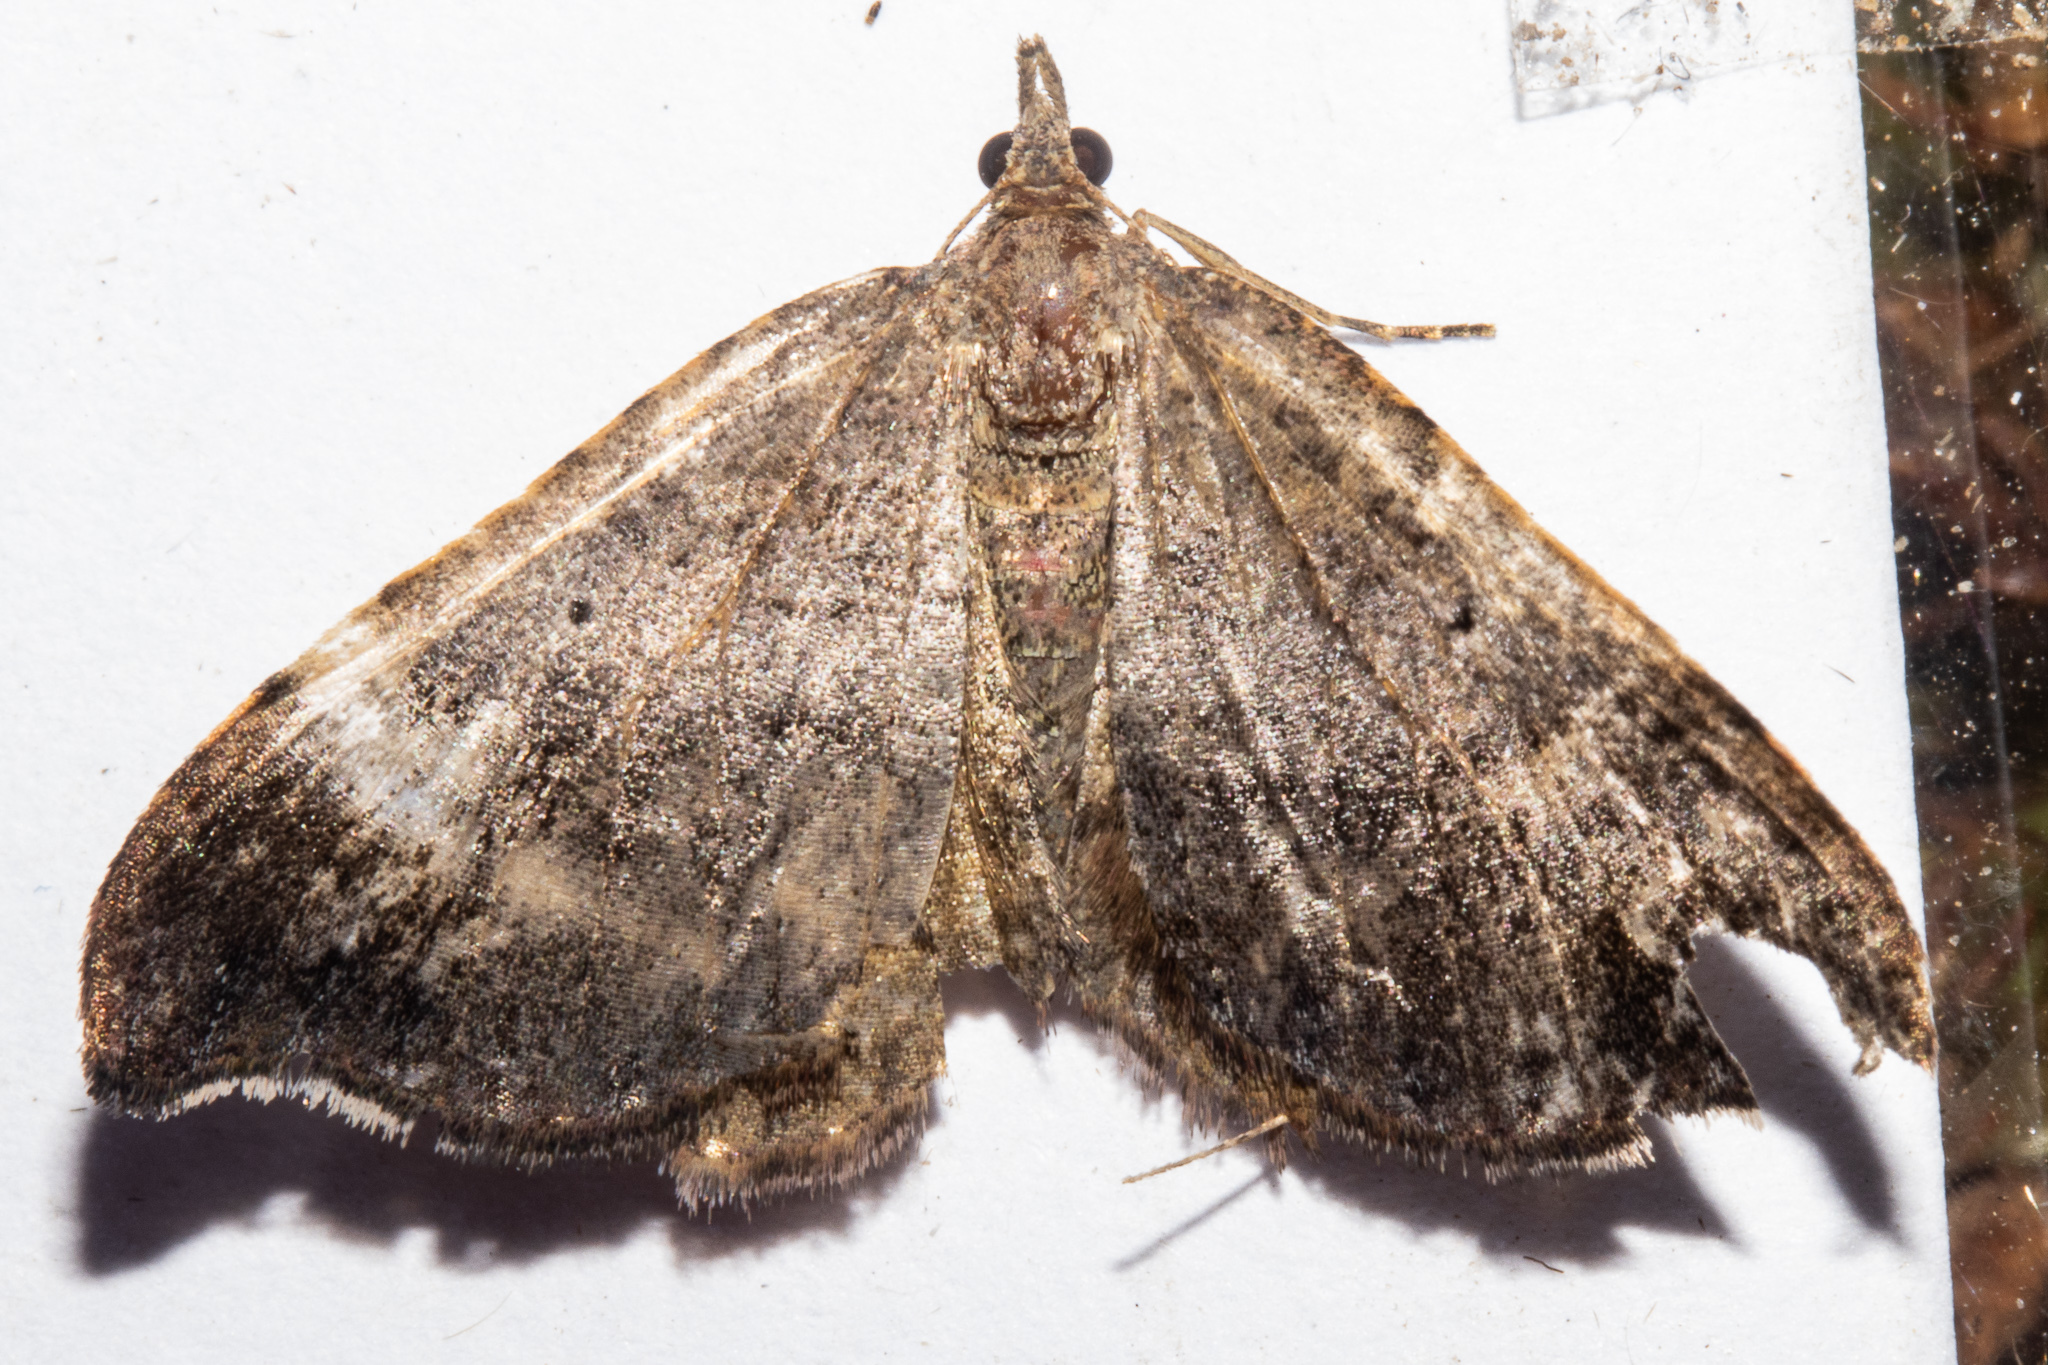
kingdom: Animalia
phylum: Arthropoda
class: Insecta
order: Lepidoptera
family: Geometridae
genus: Homodotis
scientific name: Homodotis megaspilata
